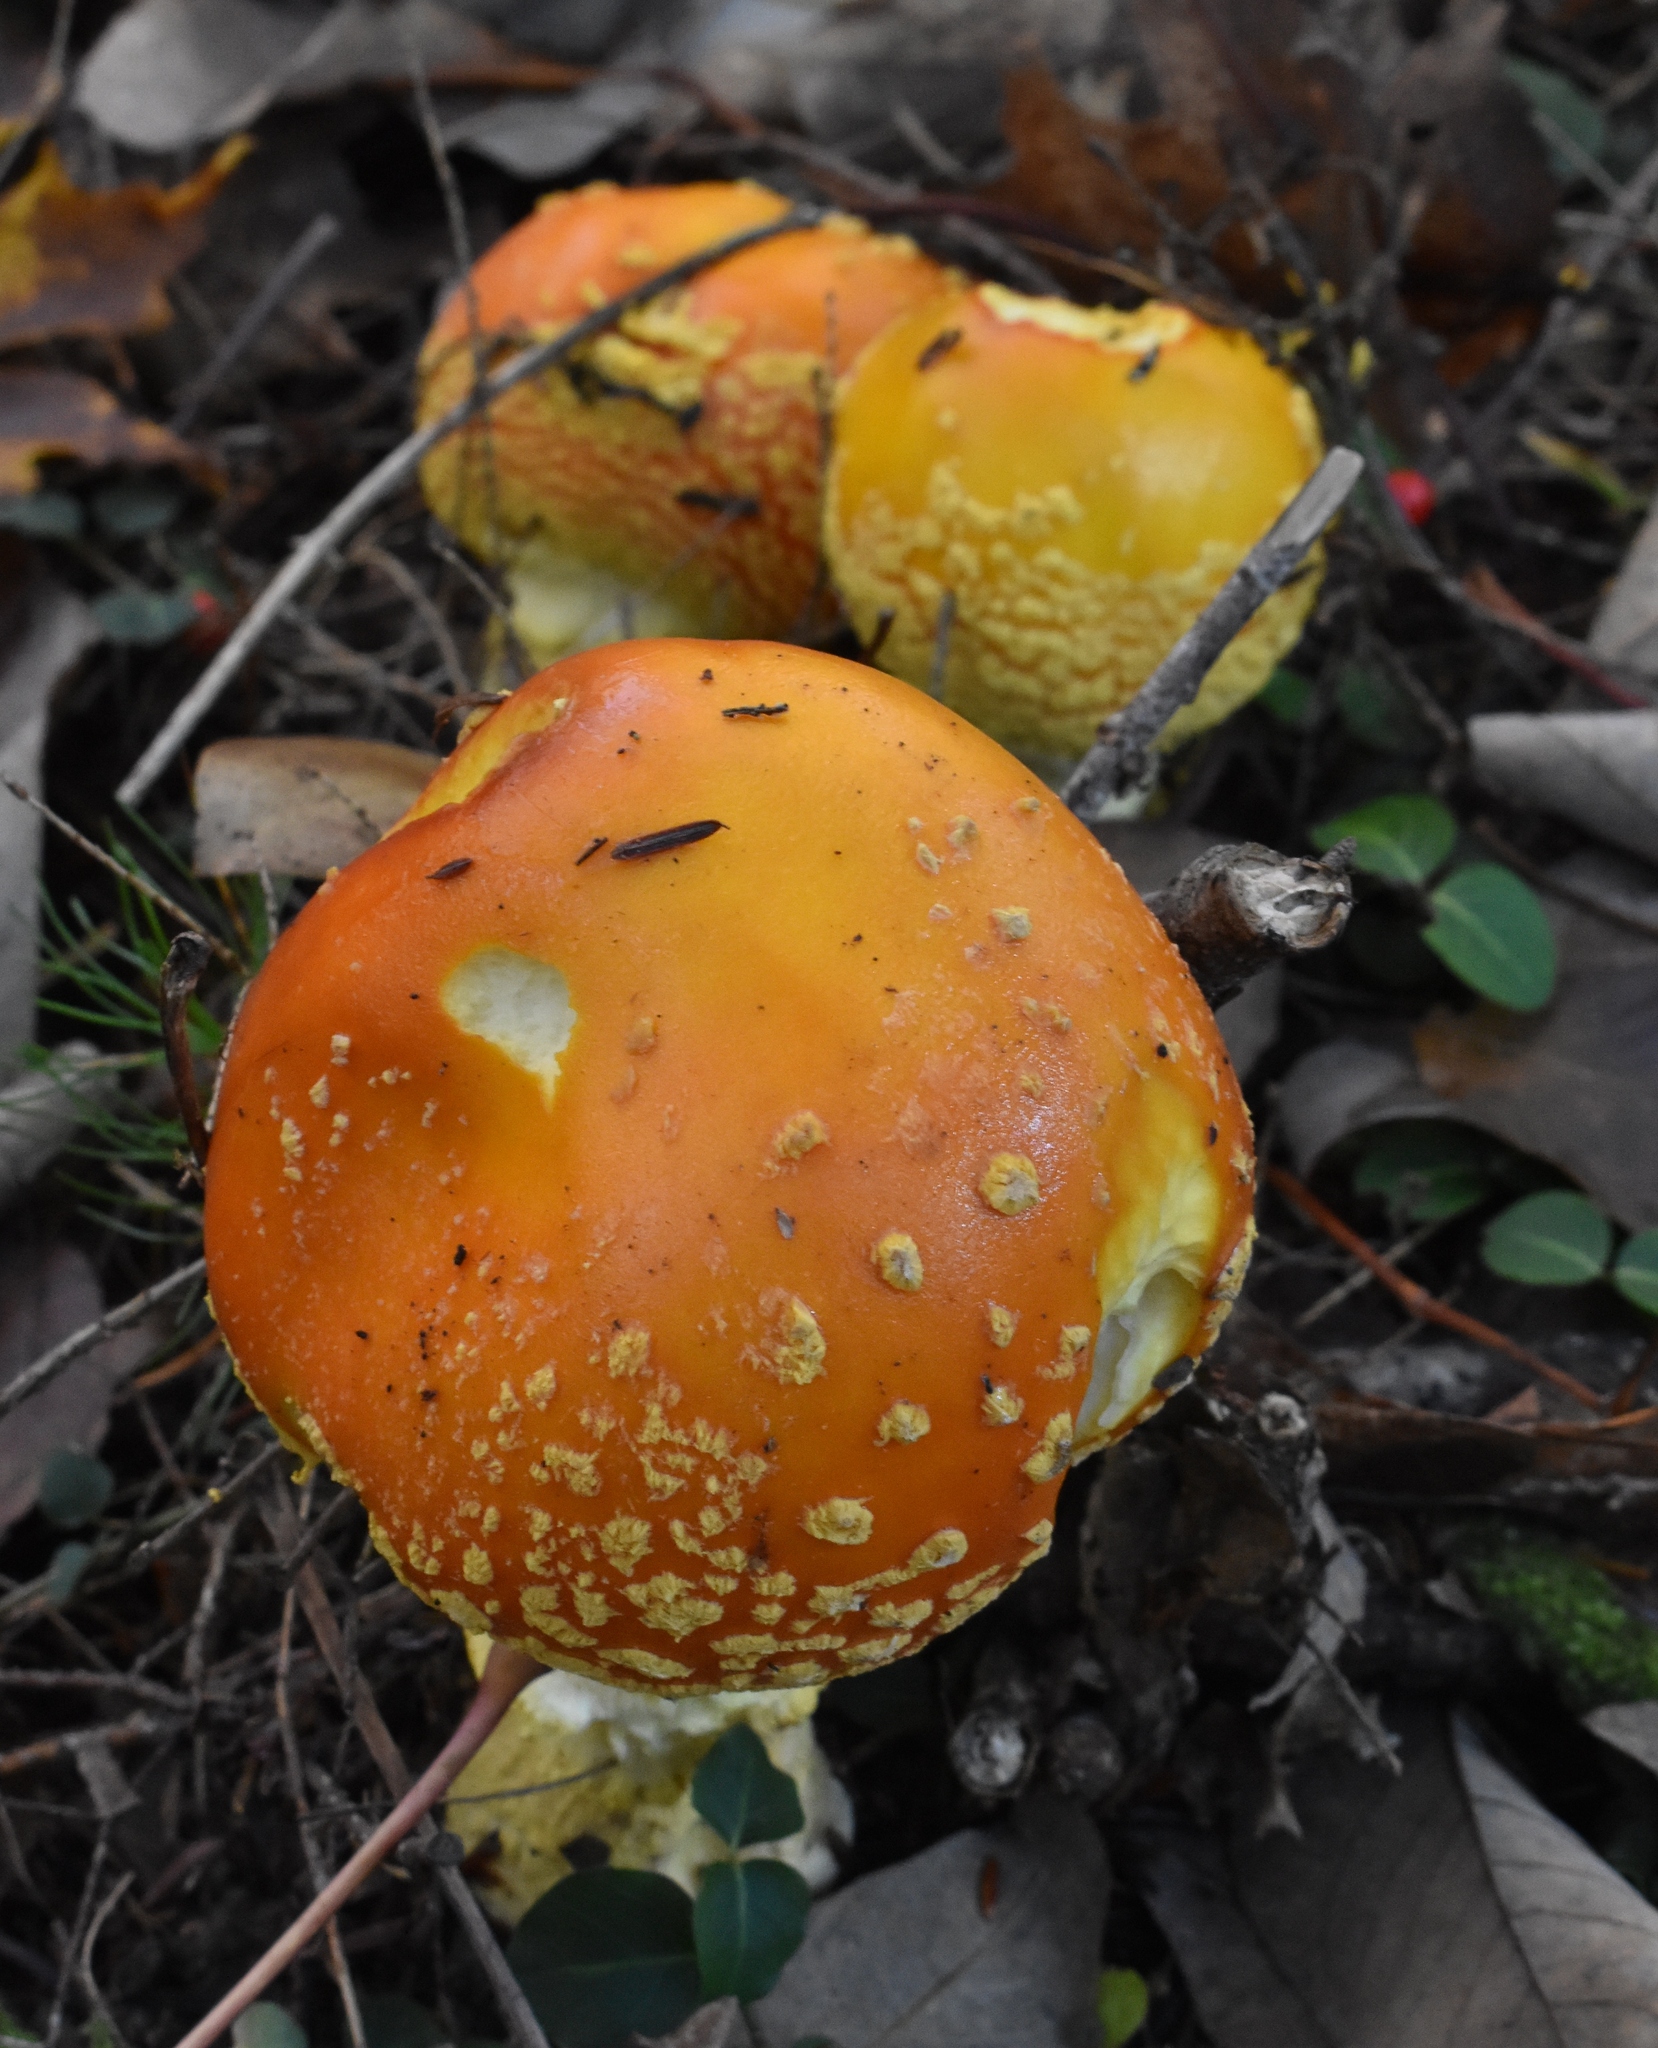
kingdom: Fungi
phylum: Basidiomycota
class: Agaricomycetes
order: Agaricales
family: Amanitaceae
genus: Amanita
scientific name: Amanita muscaria
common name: Fly agaric
